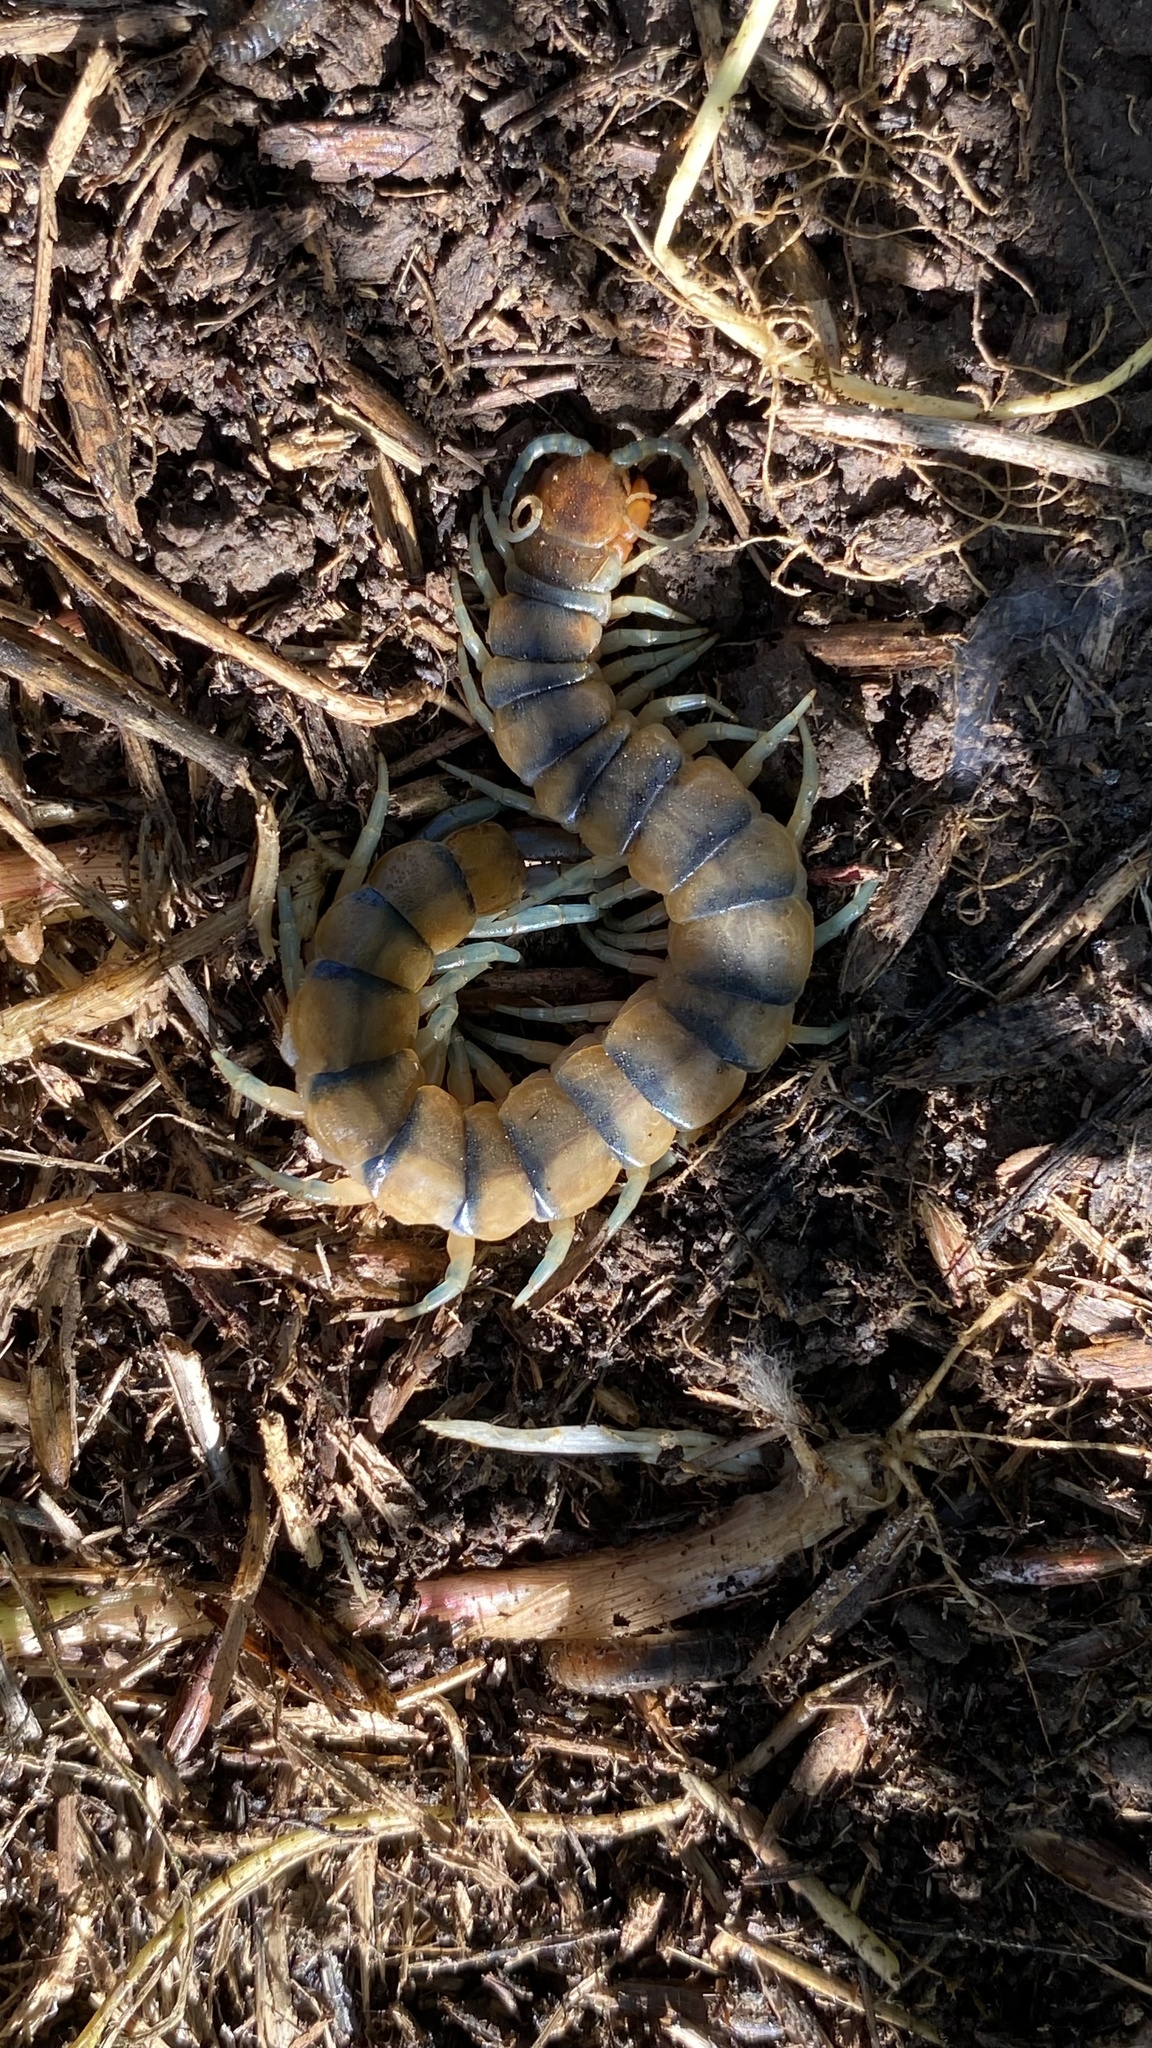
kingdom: Animalia
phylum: Arthropoda
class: Chilopoda
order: Scolopendromorpha
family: Scolopendridae
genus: Scolopendra
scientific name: Scolopendra polymorpha
